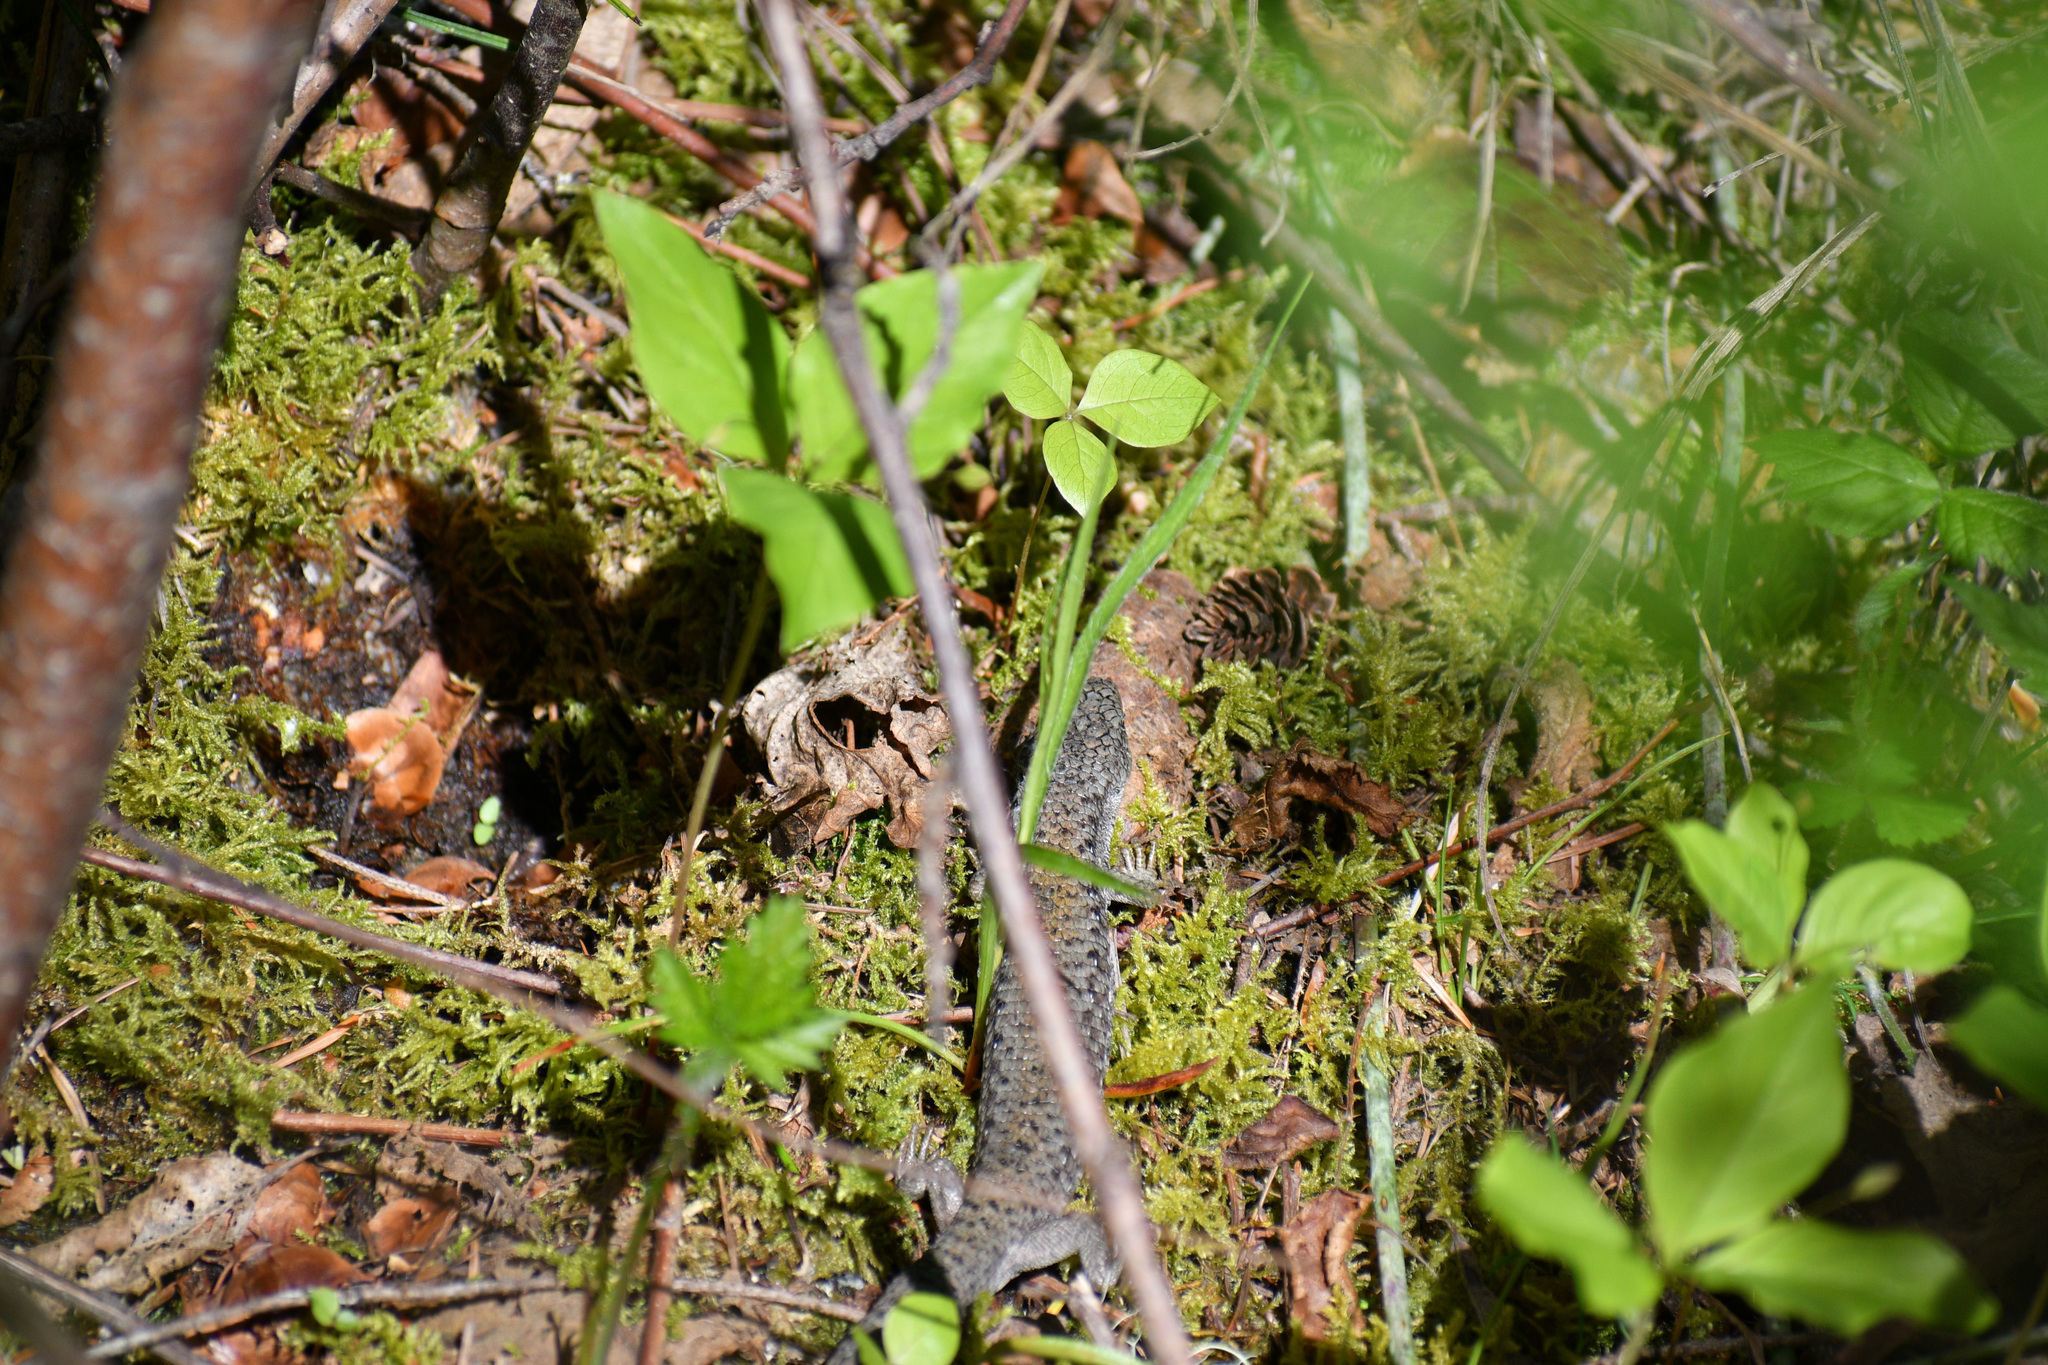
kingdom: Animalia
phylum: Chordata
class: Squamata
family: Anguidae
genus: Elgaria
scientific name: Elgaria coerulea
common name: Northern alligator lizard
